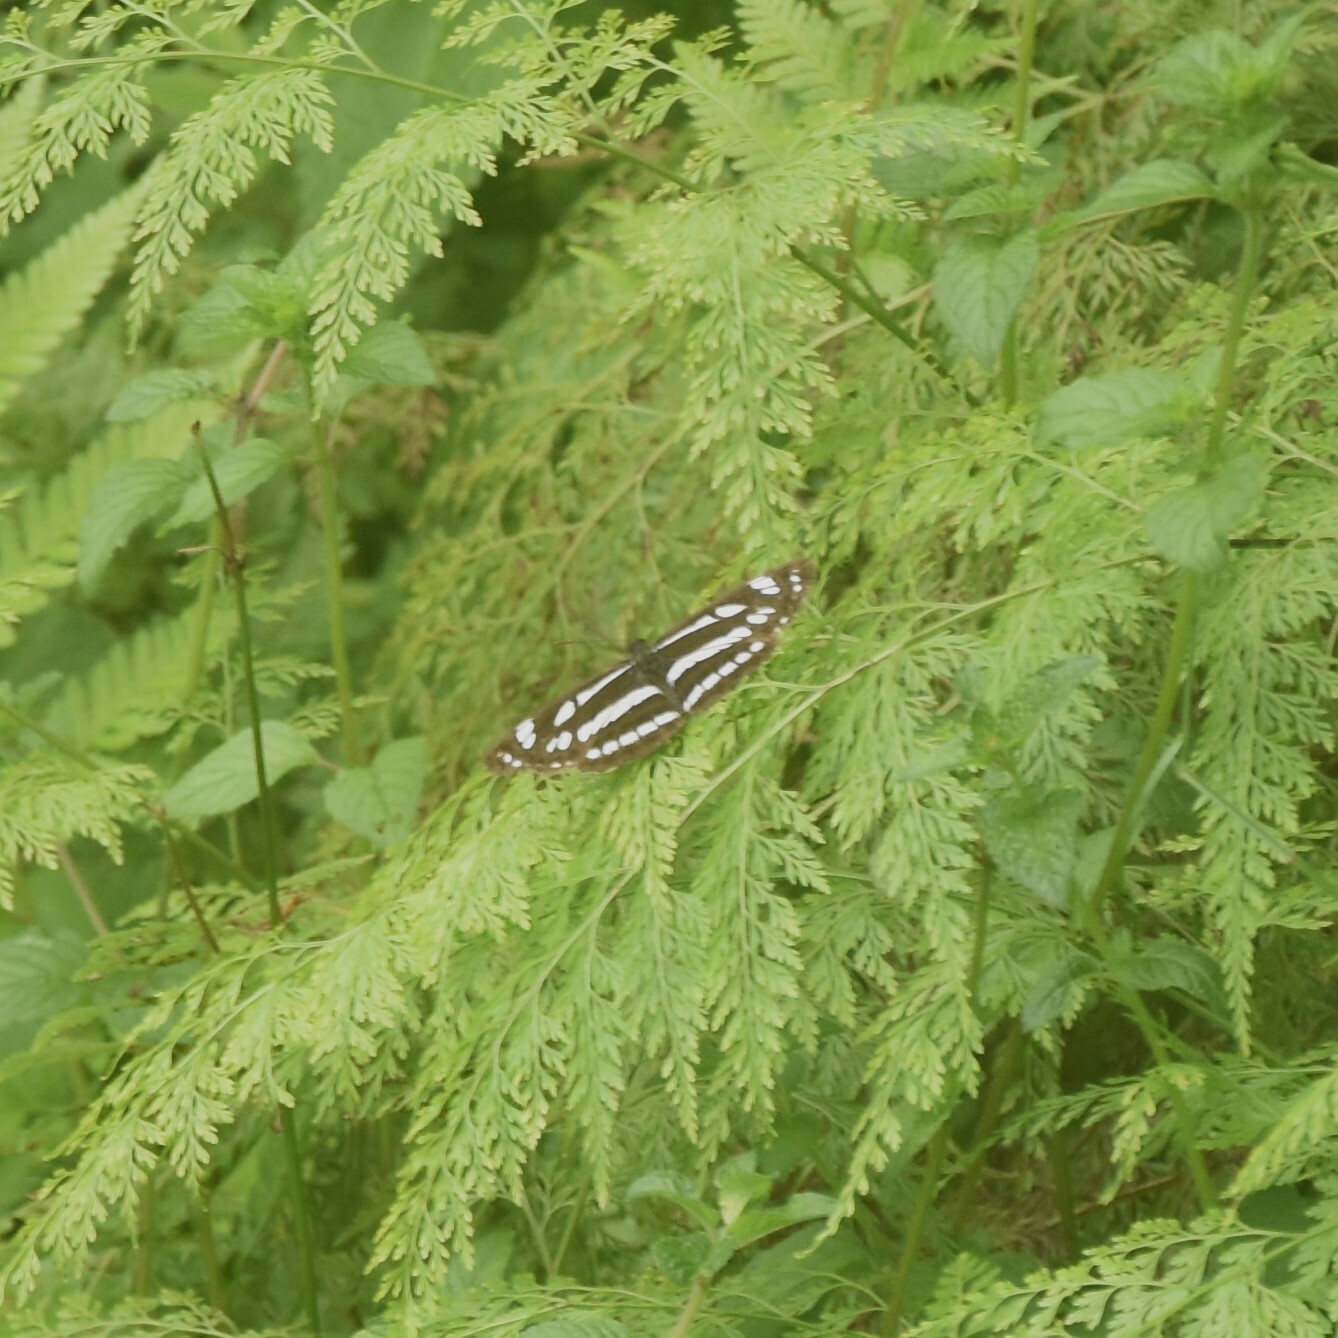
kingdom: Animalia
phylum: Arthropoda
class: Insecta
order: Lepidoptera
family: Nymphalidae
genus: Neptis
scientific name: Neptis hylas
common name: Common sailer
